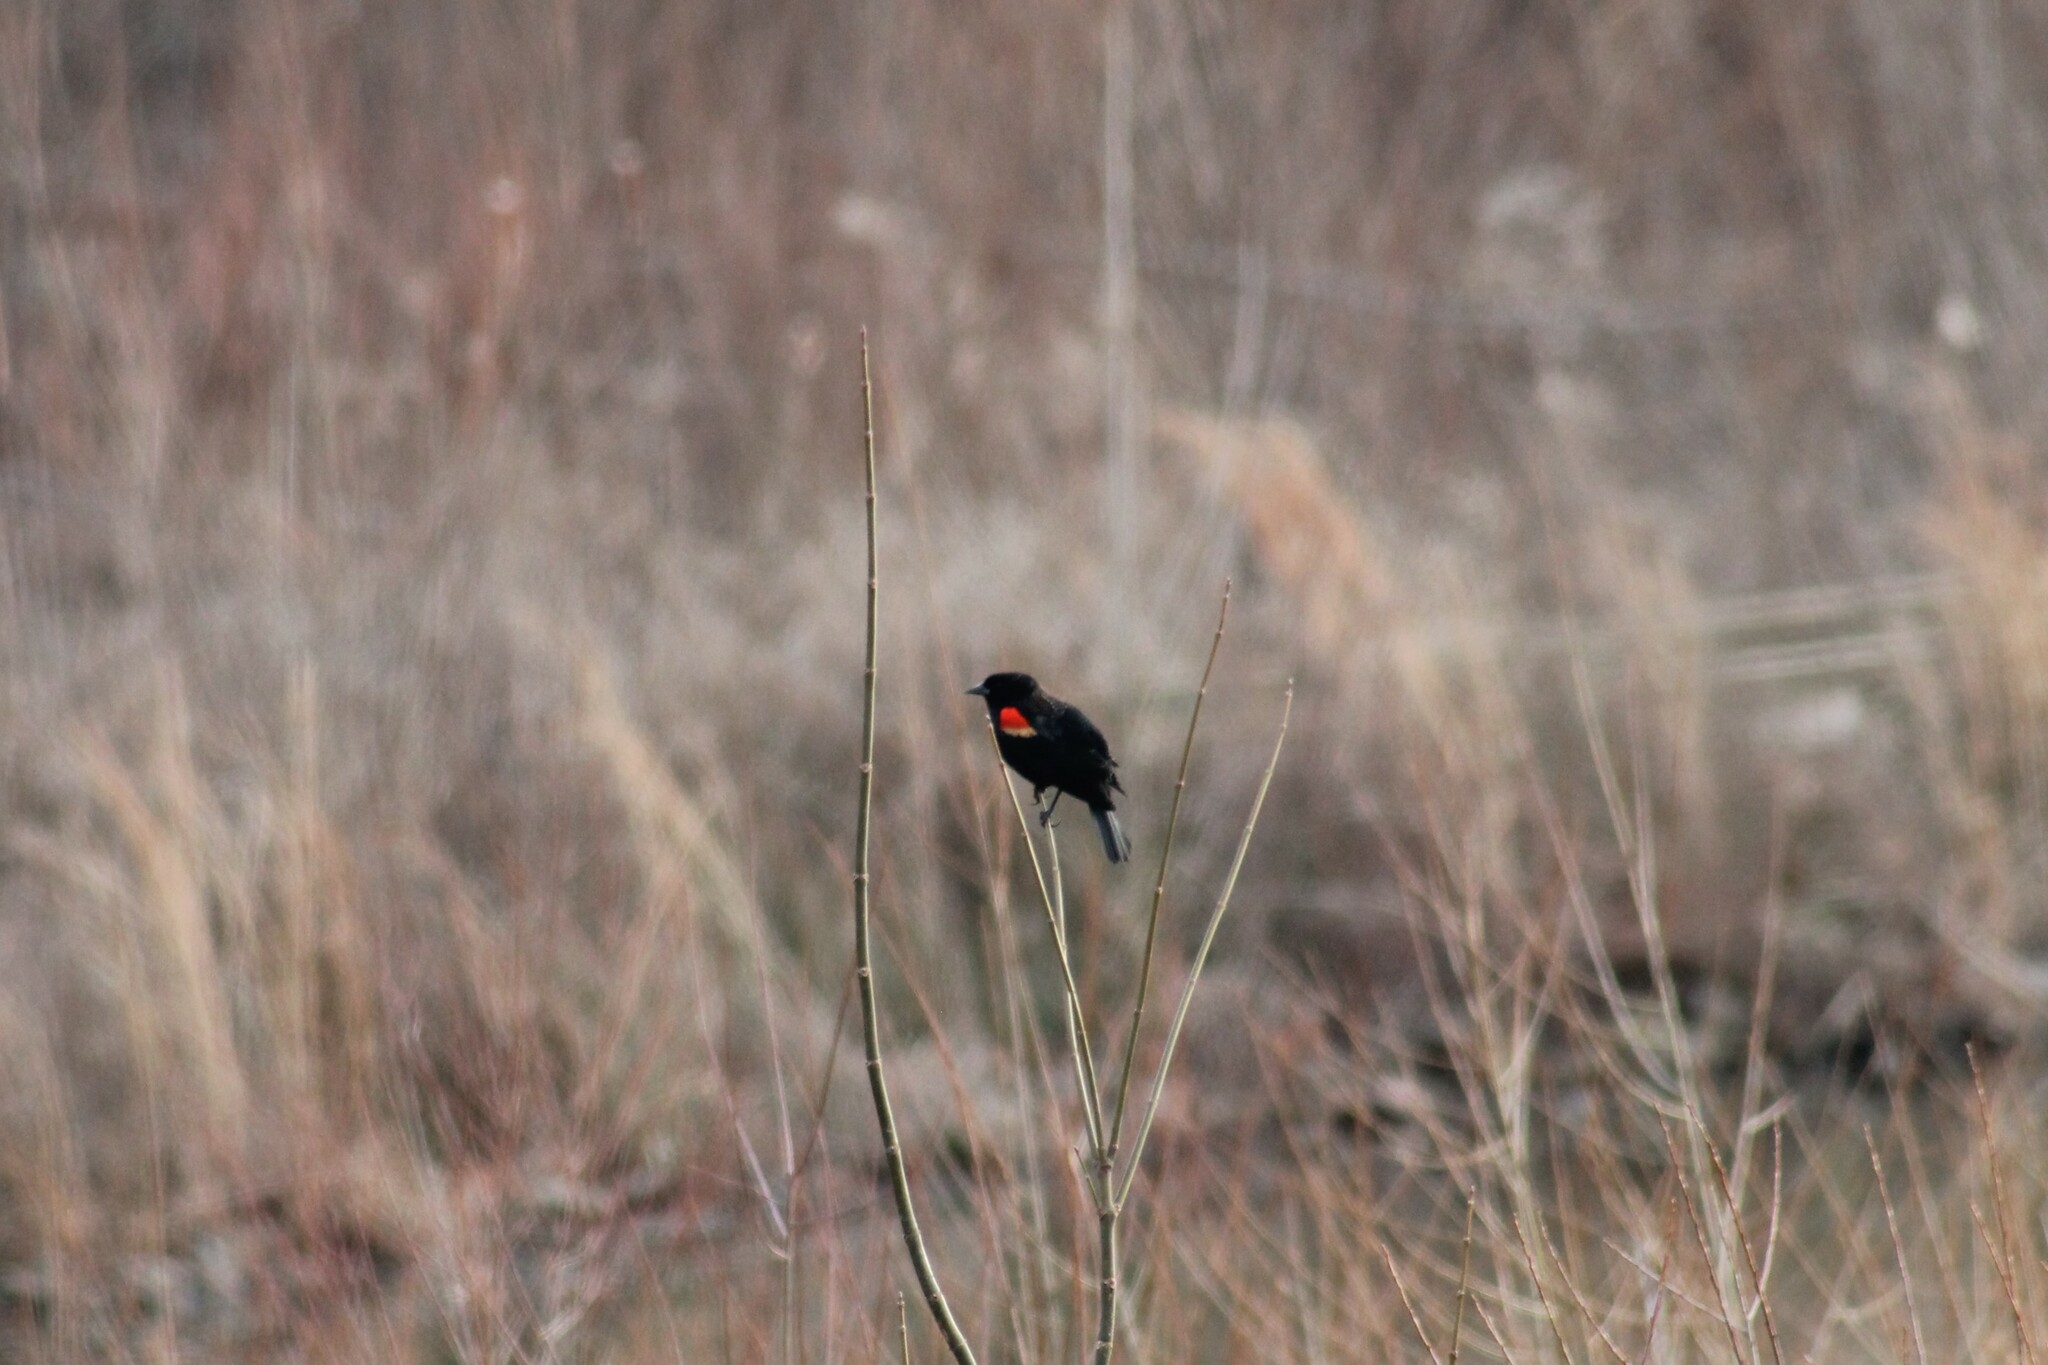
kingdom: Animalia
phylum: Chordata
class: Aves
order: Passeriformes
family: Icteridae
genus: Agelaius
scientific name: Agelaius phoeniceus
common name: Red-winged blackbird
